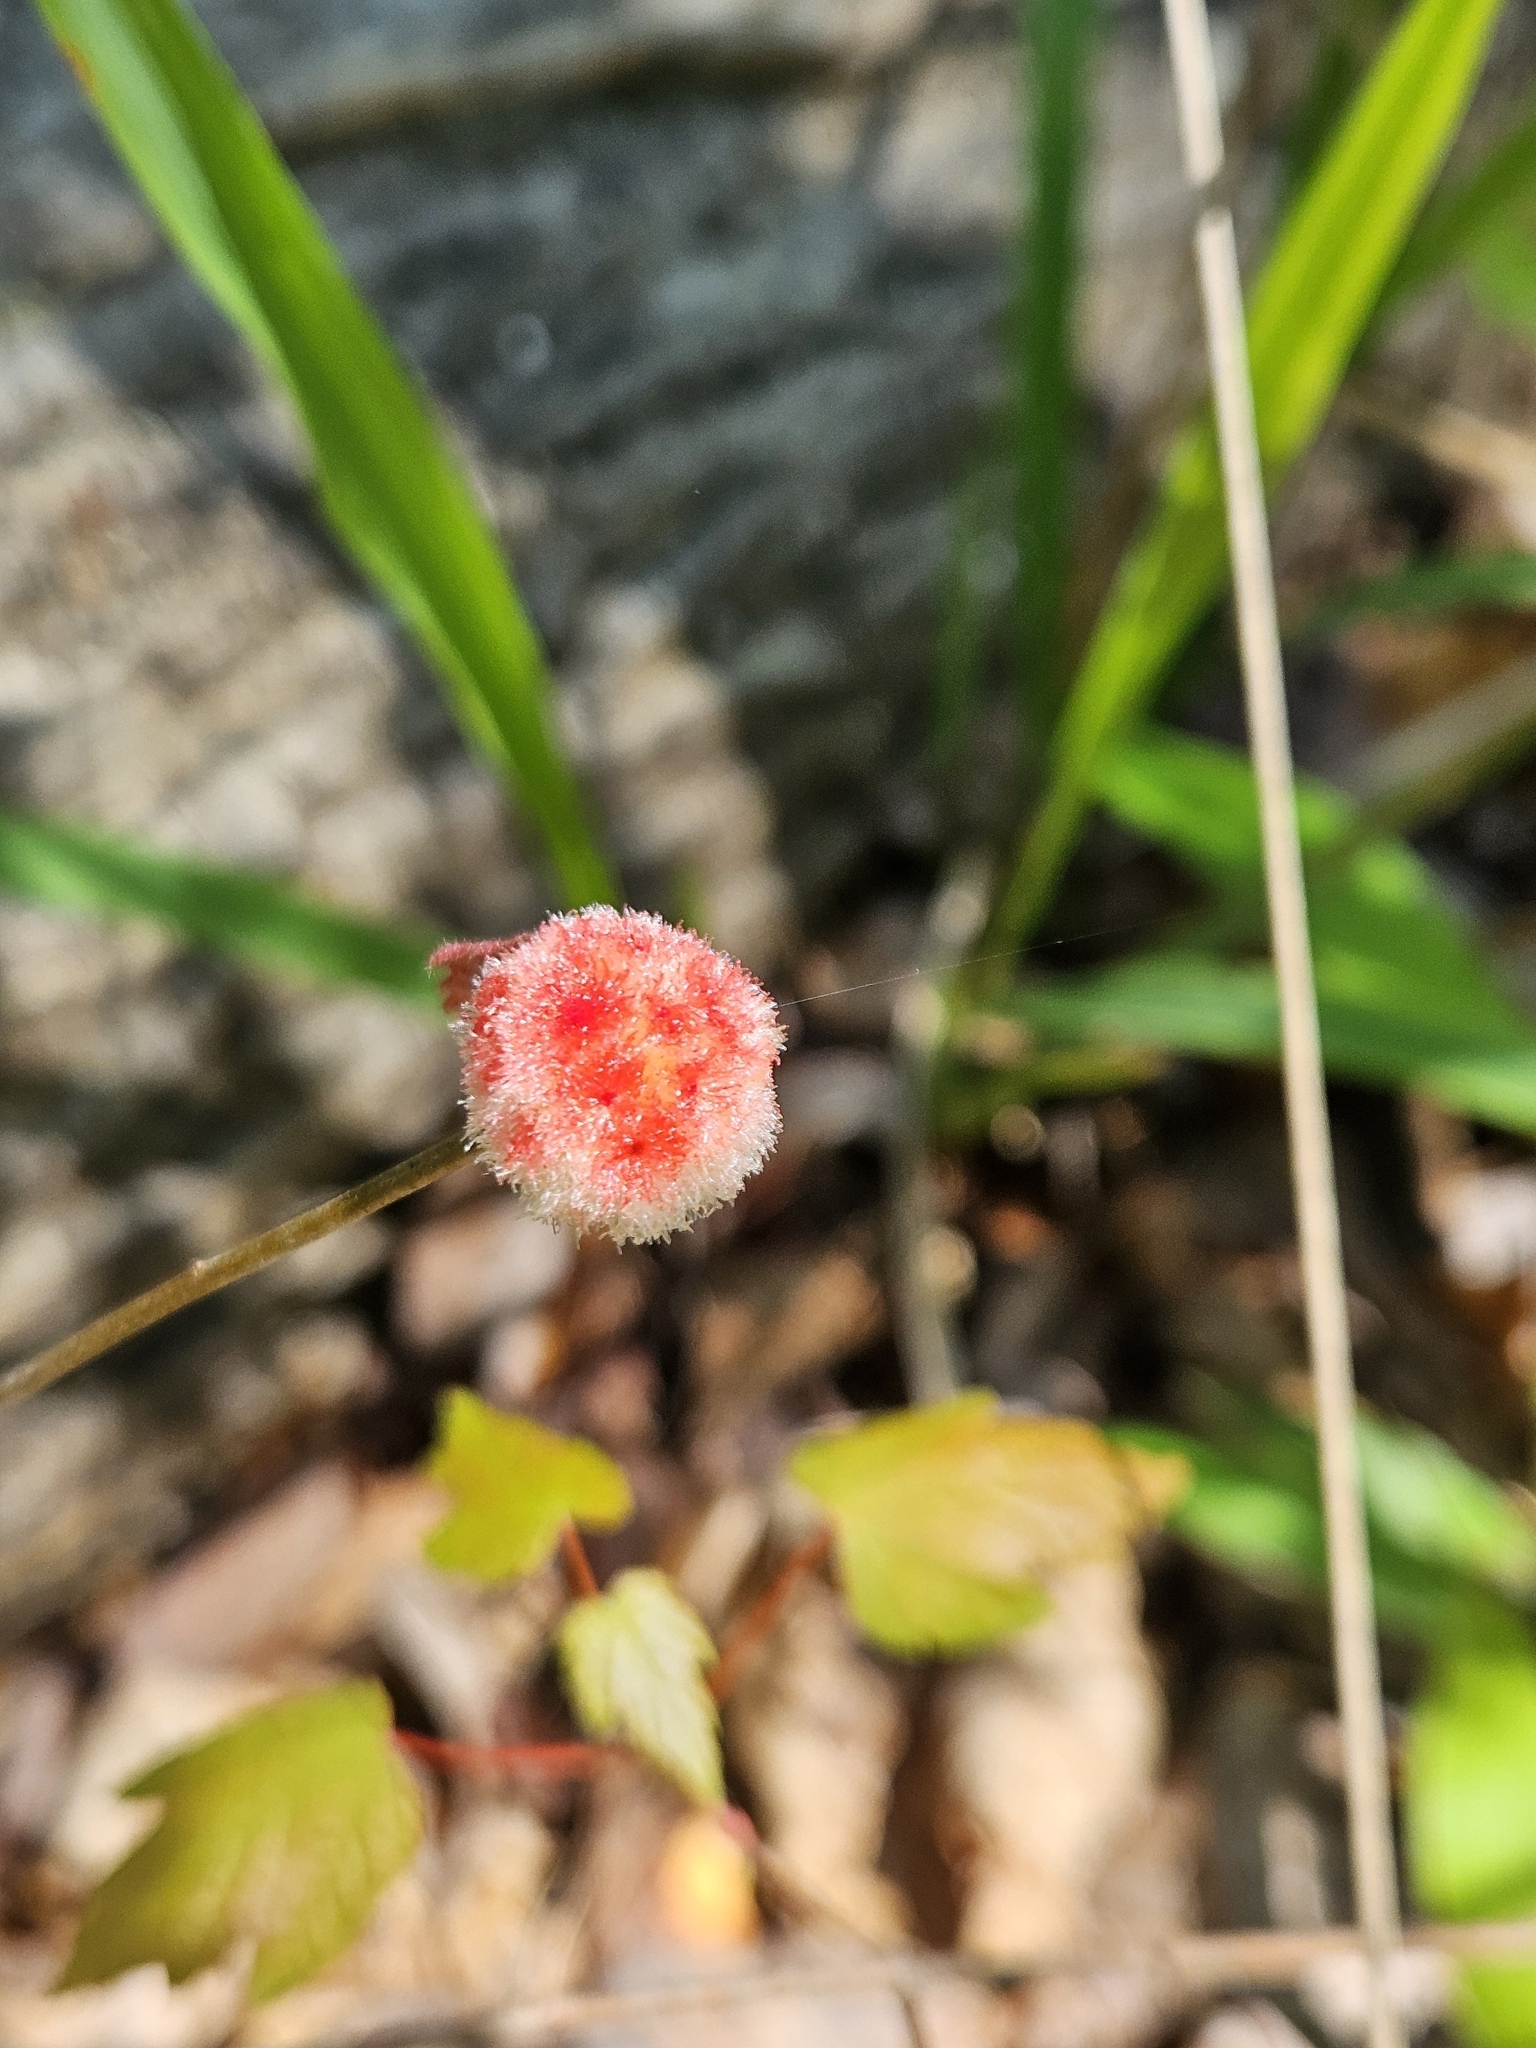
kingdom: Animalia
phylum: Arthropoda
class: Insecta
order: Hymenoptera
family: Cynipidae
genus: Callirhytis
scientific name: Callirhytis
